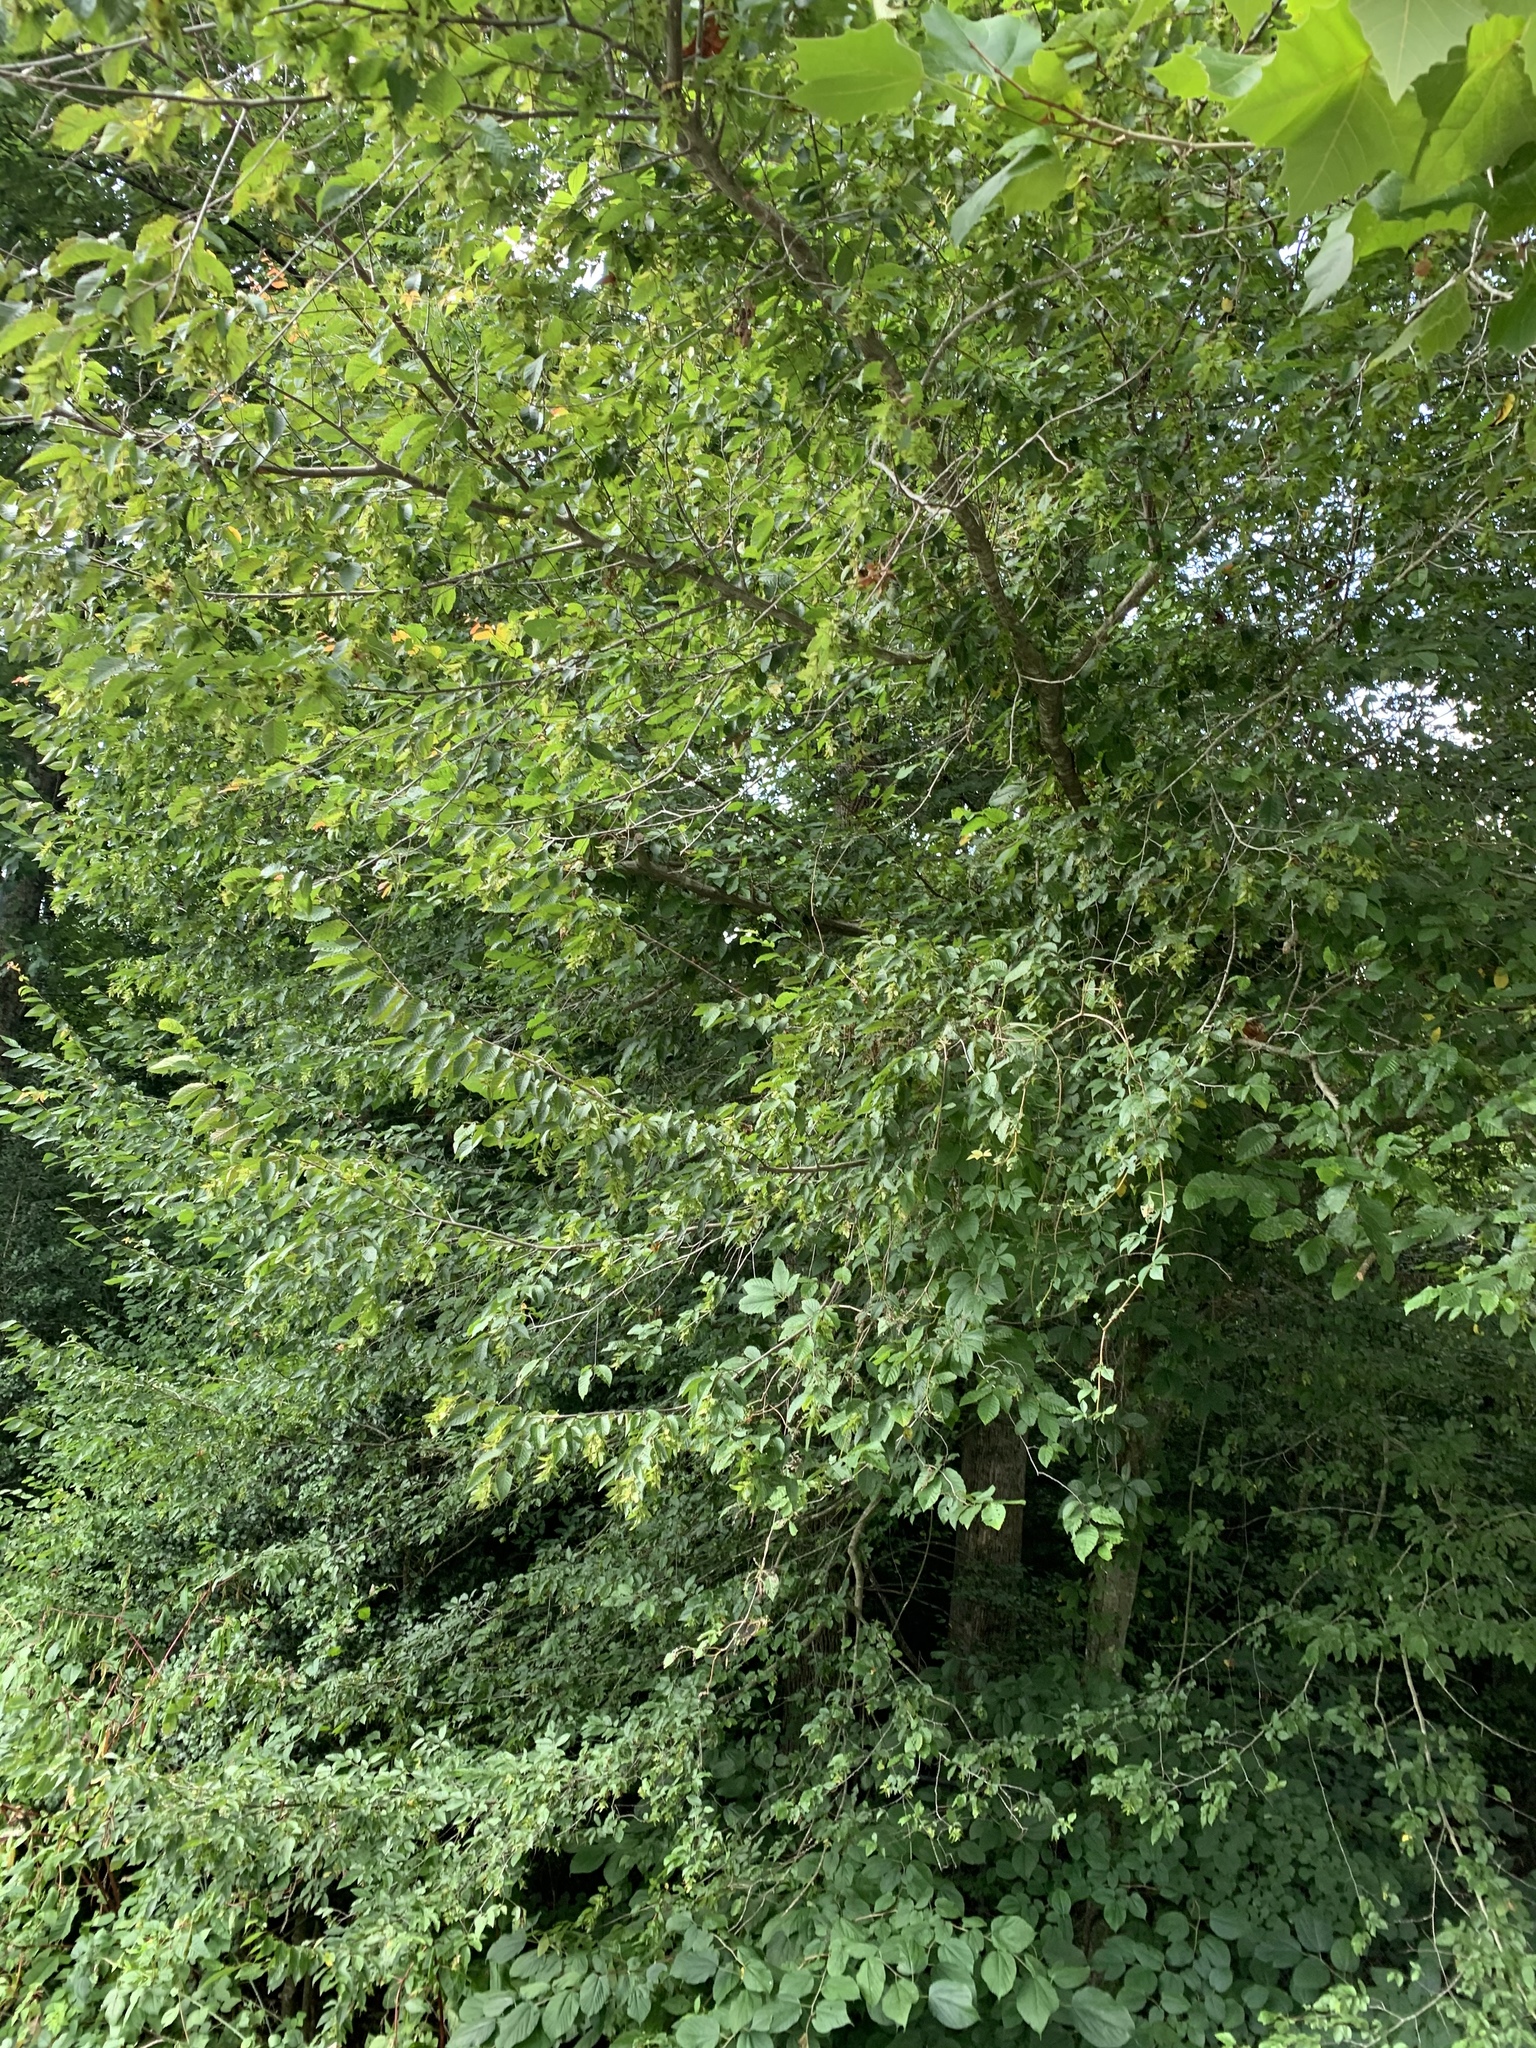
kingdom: Plantae
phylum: Tracheophyta
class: Magnoliopsida
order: Fagales
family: Betulaceae
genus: Carpinus
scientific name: Carpinus caroliniana
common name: American hornbeam
